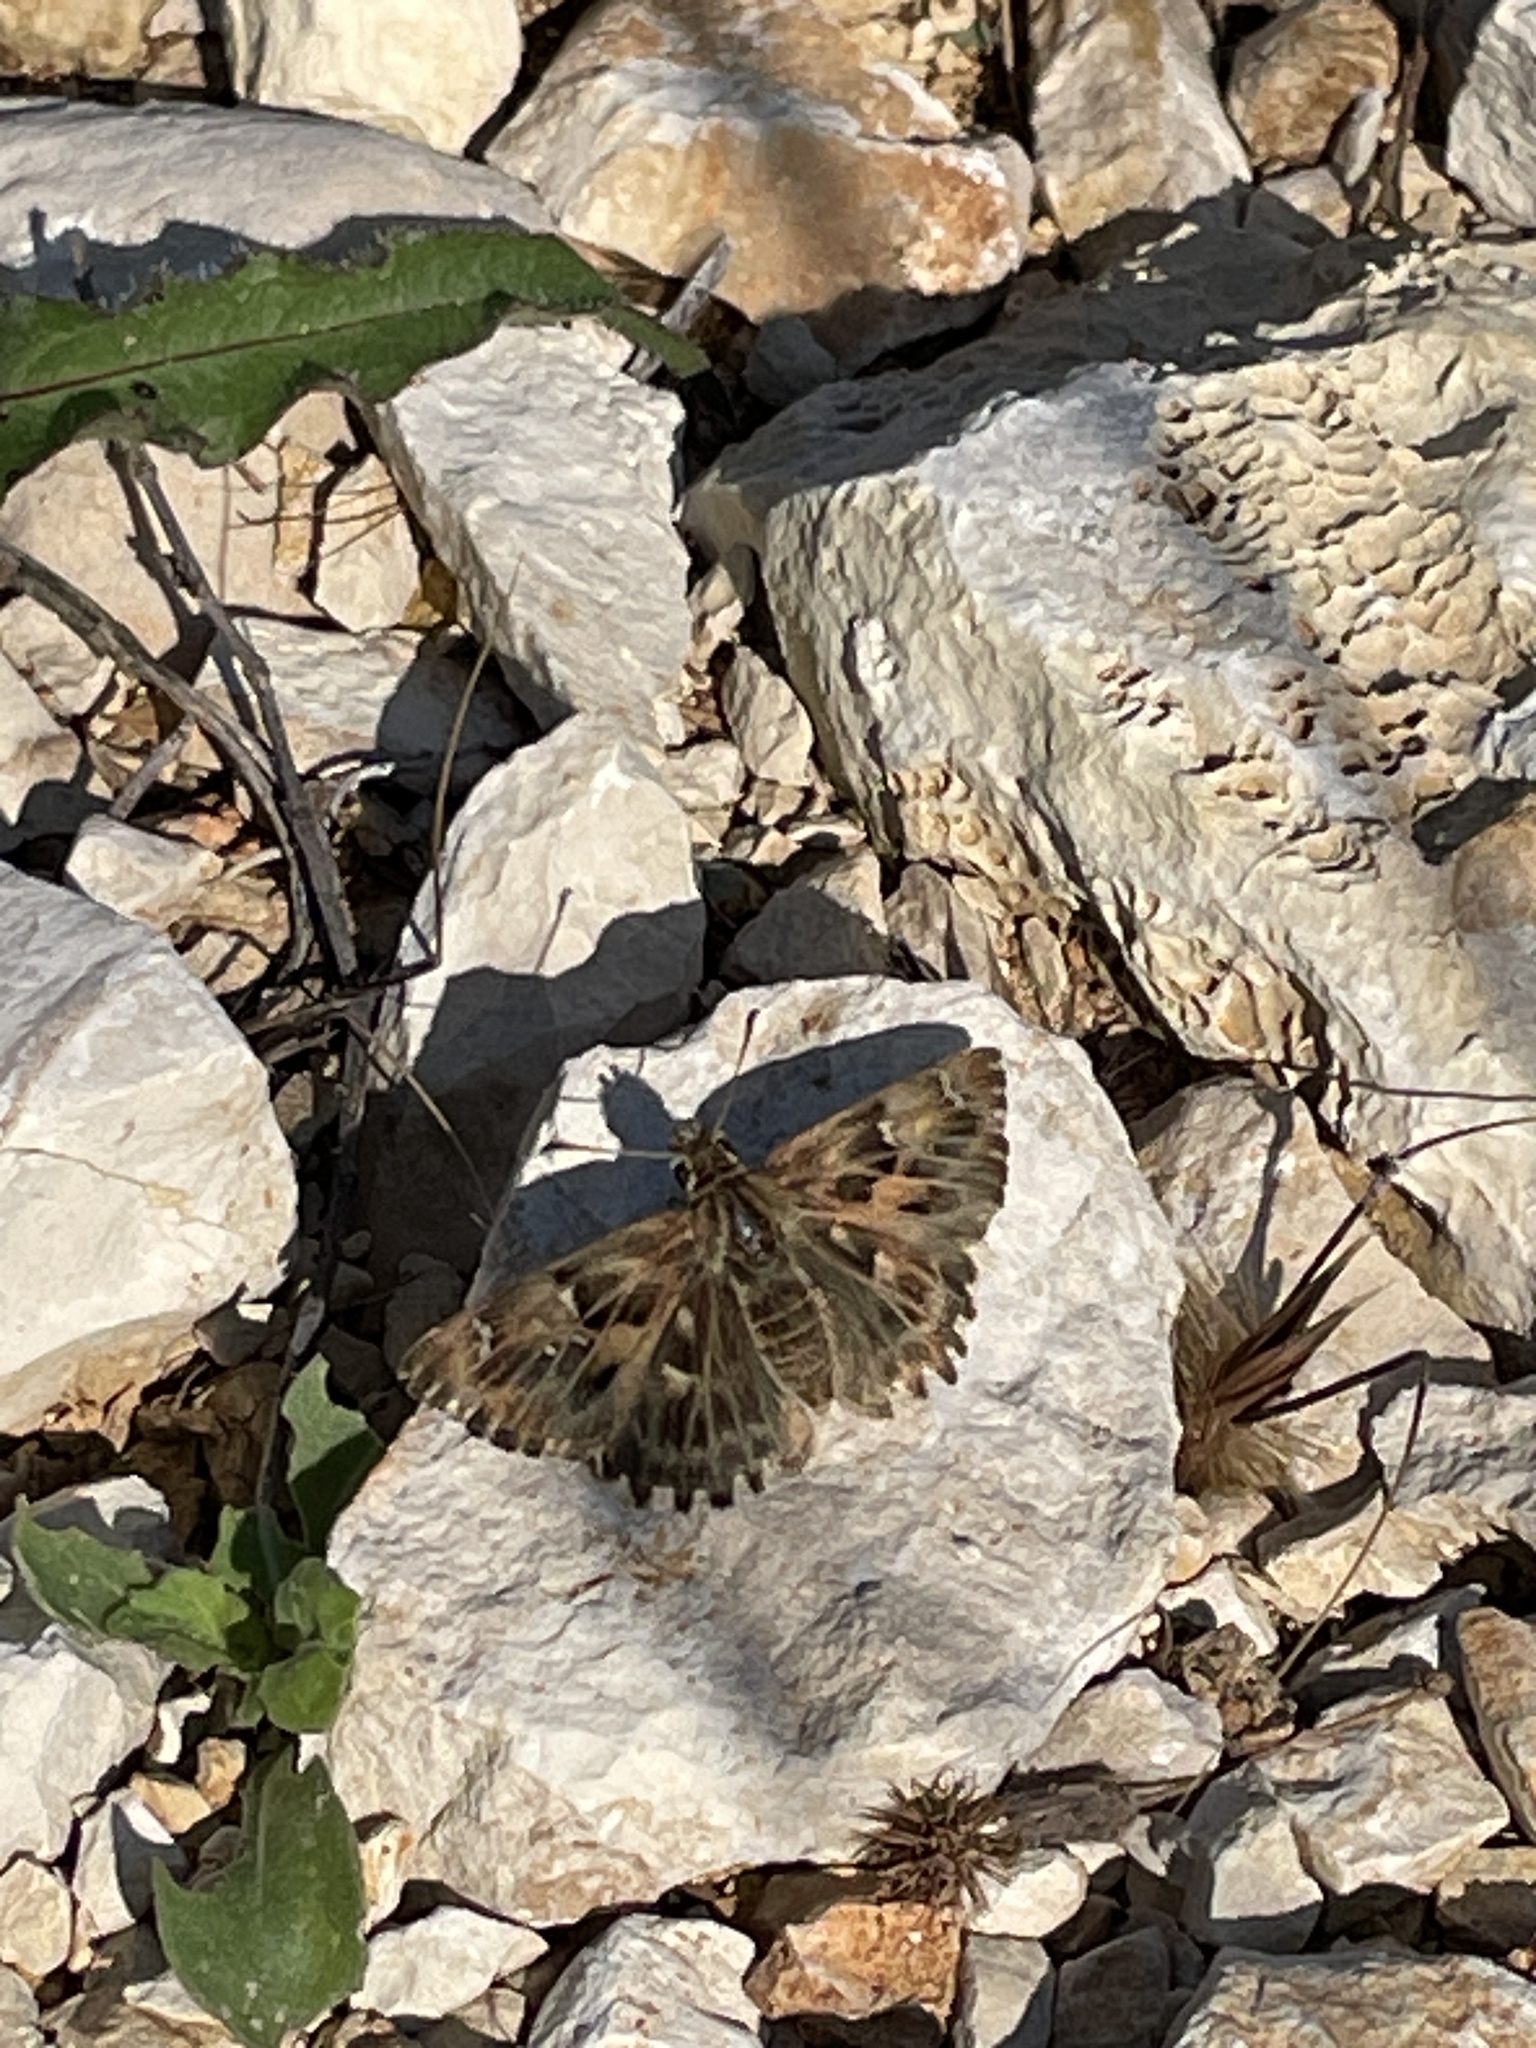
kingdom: Animalia
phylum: Arthropoda
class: Insecta
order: Lepidoptera
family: Hesperiidae
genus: Carcharodus
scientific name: Carcharodus alceae
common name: Mallow skipper
